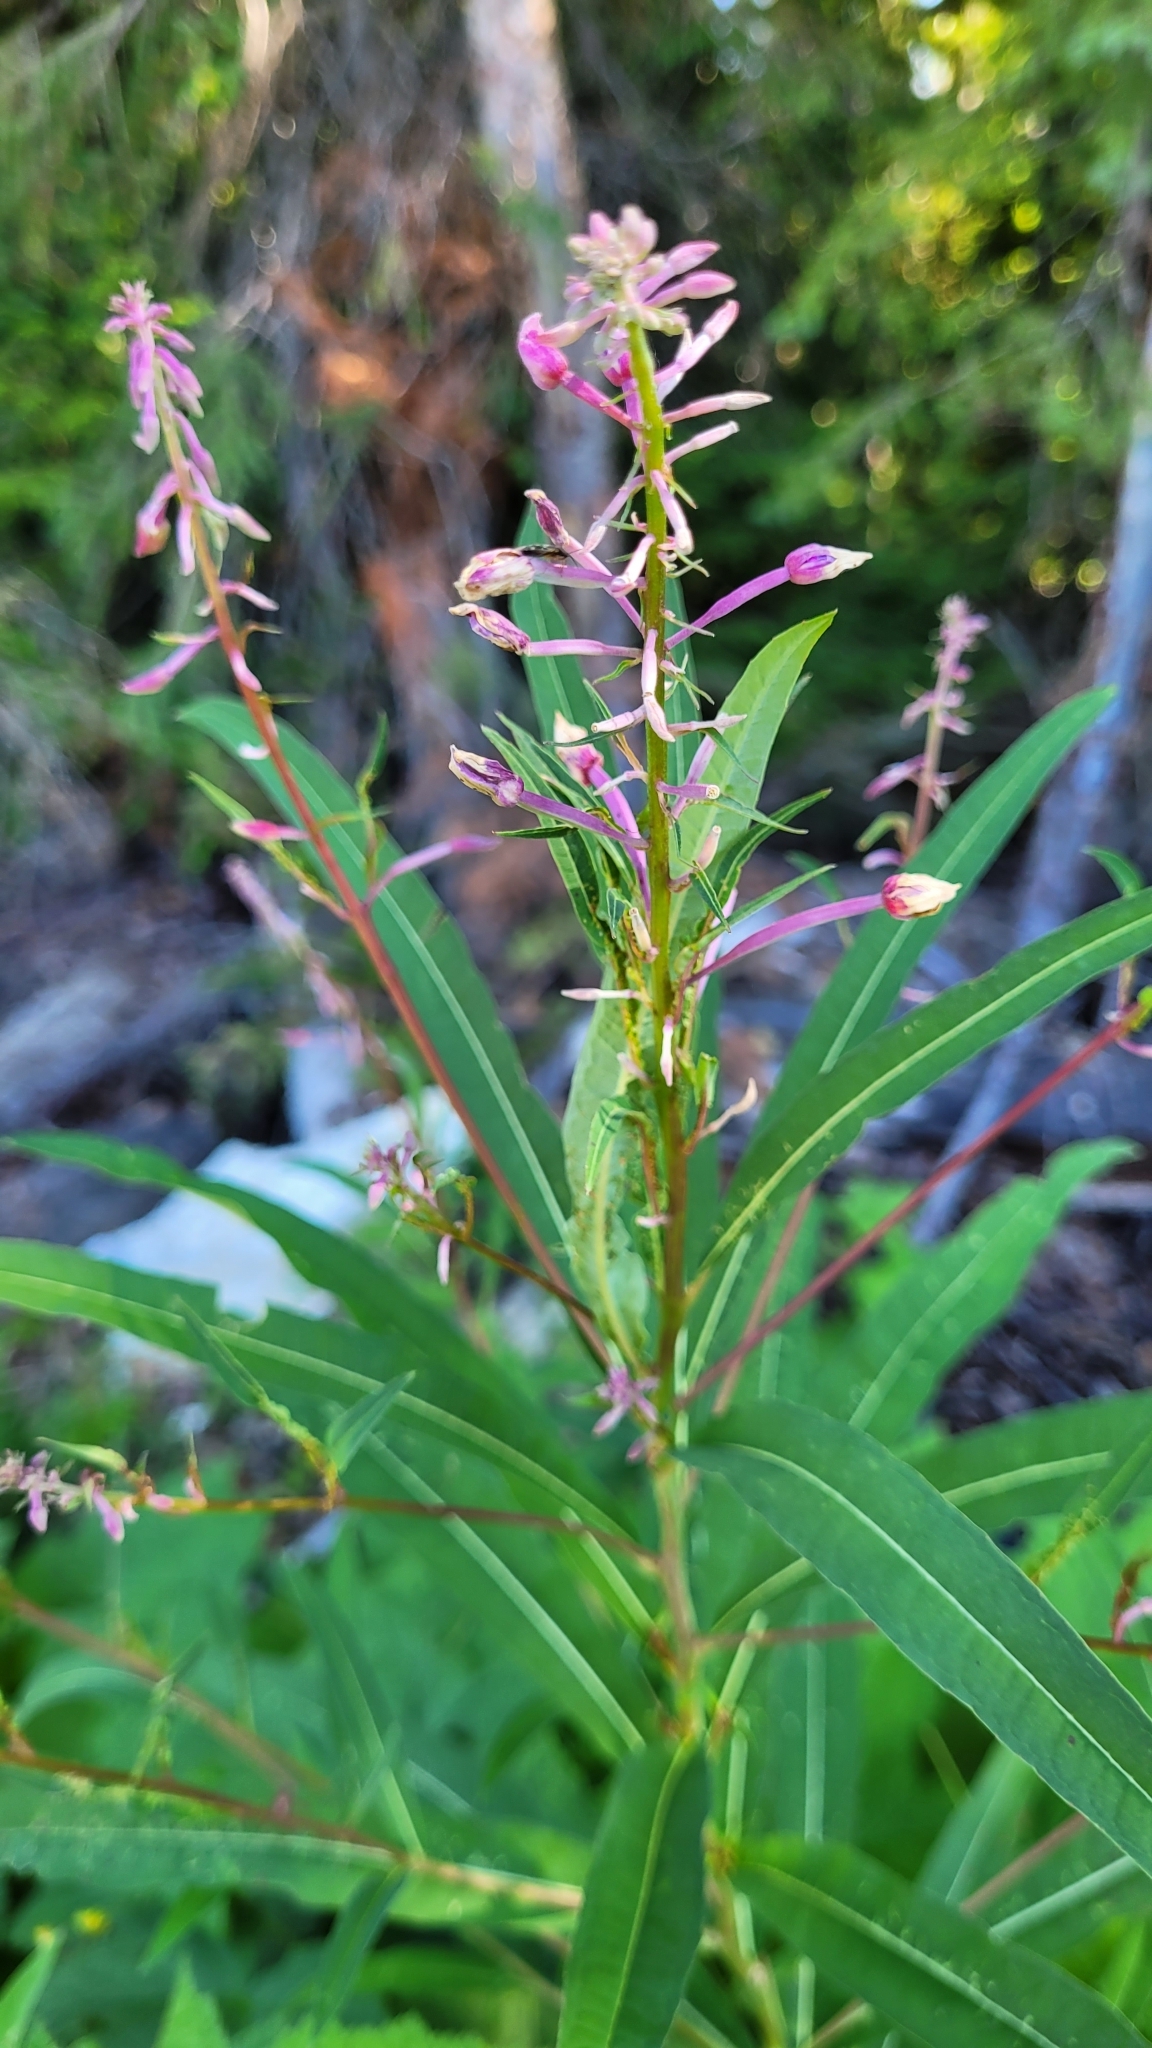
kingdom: Plantae
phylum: Tracheophyta
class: Magnoliopsida
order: Myrtales
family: Onagraceae
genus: Chamaenerion
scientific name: Chamaenerion angustifolium
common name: Fireweed
